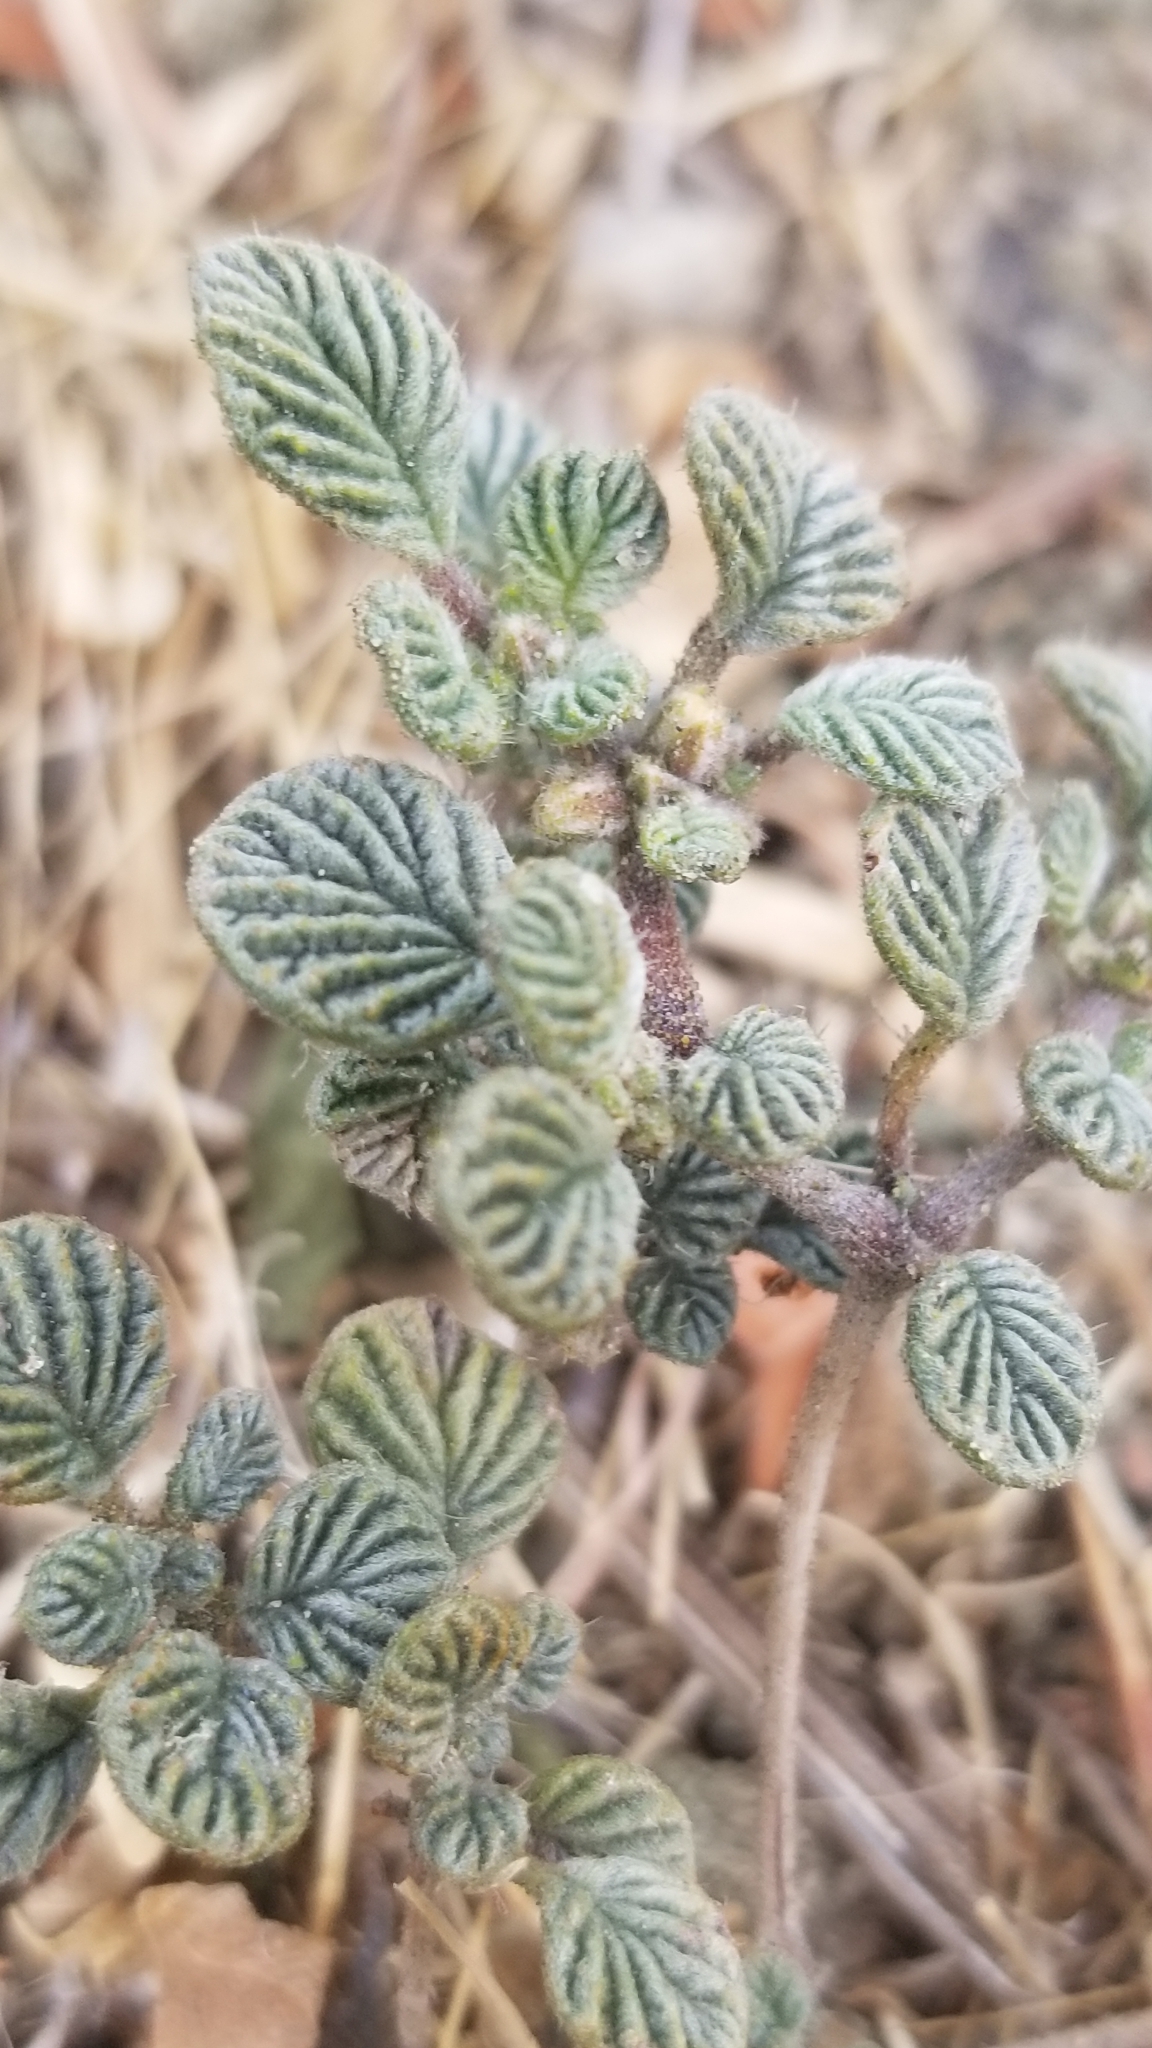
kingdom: Plantae
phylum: Tracheophyta
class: Magnoliopsida
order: Boraginales
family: Ehretiaceae
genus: Tiquilia
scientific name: Tiquilia plicata
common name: Fan-leaf tiquilia
